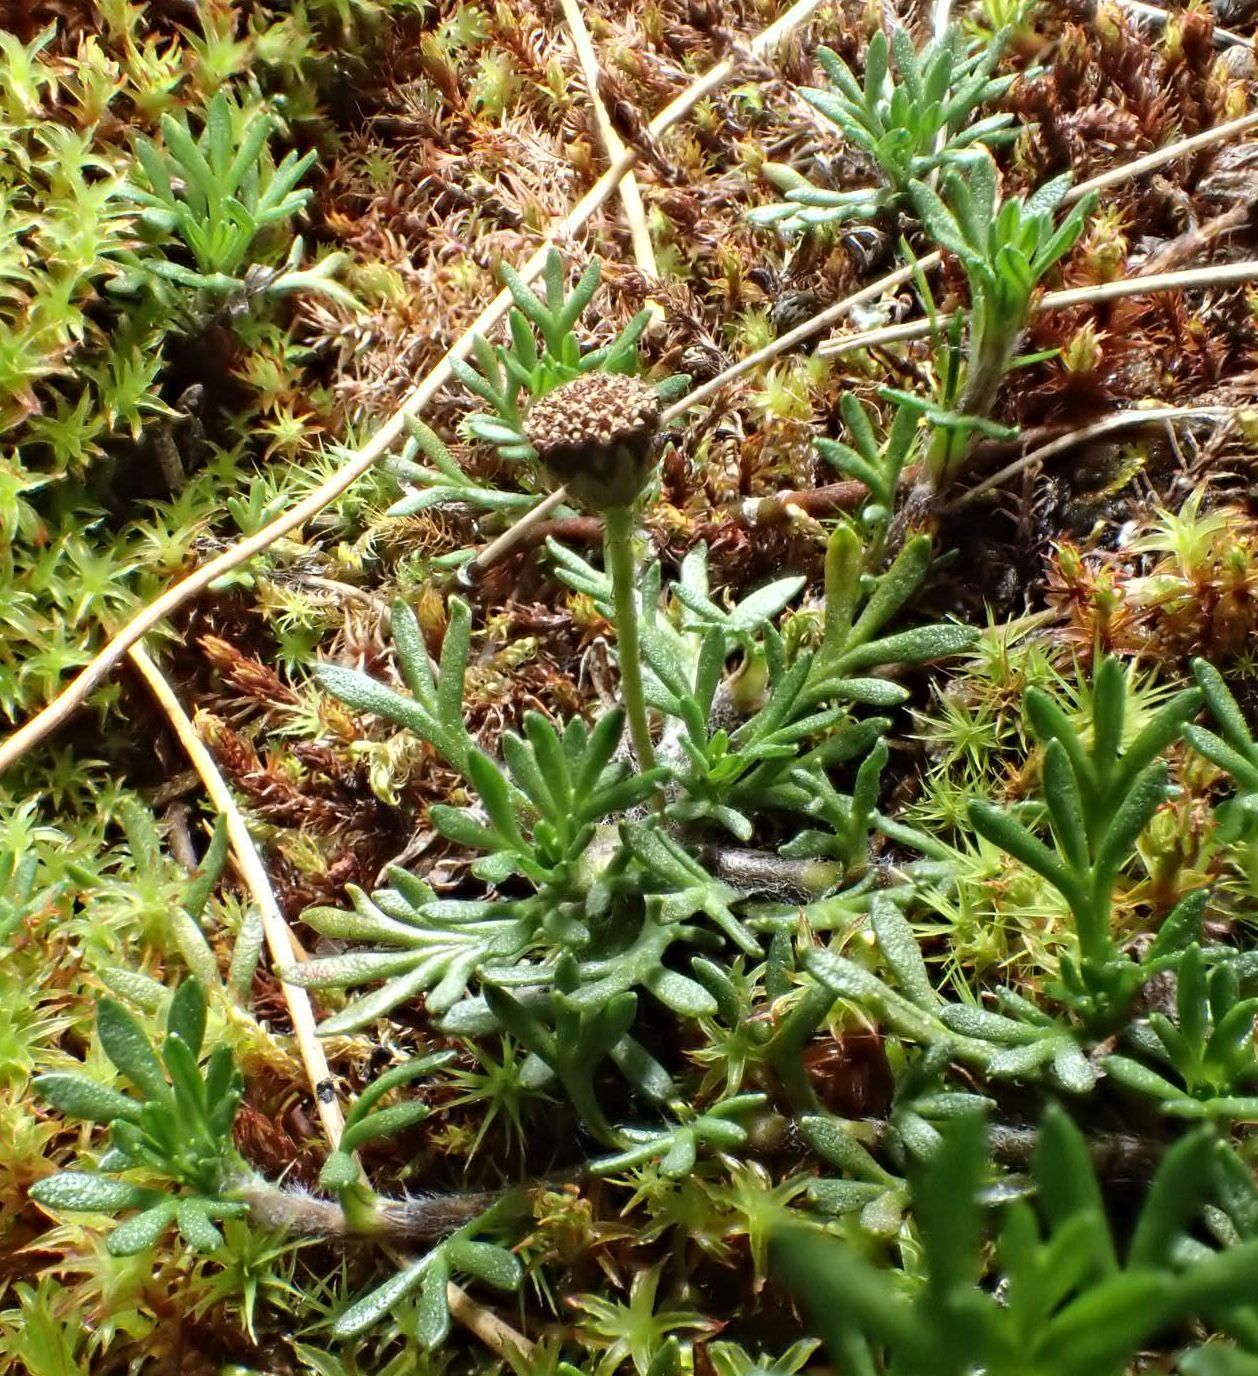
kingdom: Plantae
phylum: Tracheophyta
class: Magnoliopsida
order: Asterales
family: Asteraceae
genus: Leptinella
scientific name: Leptinella pectinata
